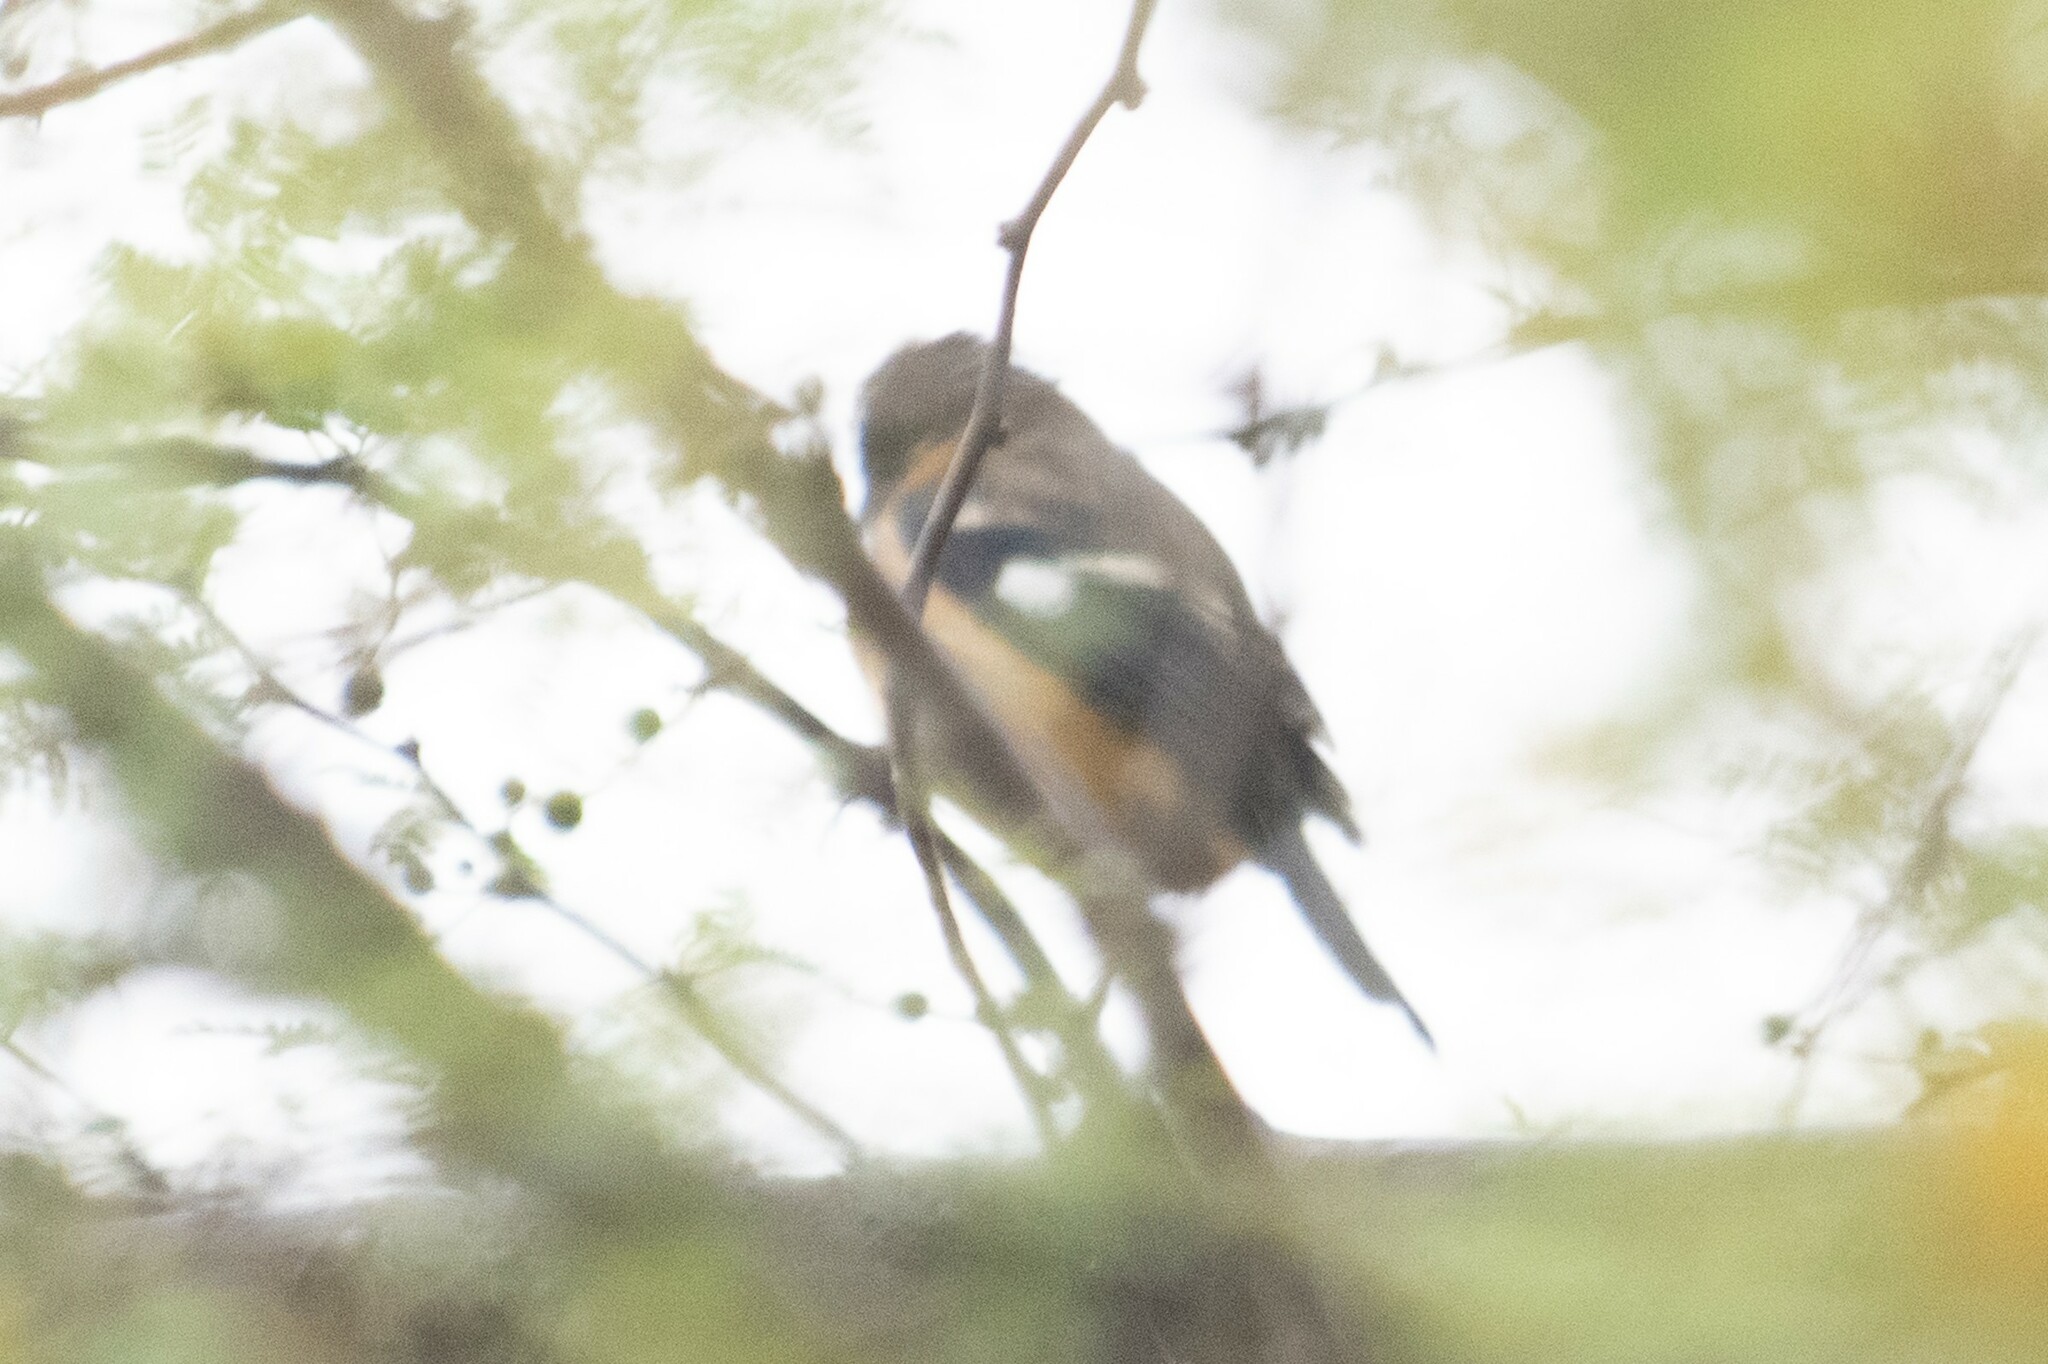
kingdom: Animalia
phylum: Chordata
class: Aves
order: Passeriformes
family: Thraupidae
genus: Sporophila
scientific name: Sporophila morelleti
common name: Morelet's seedeater
